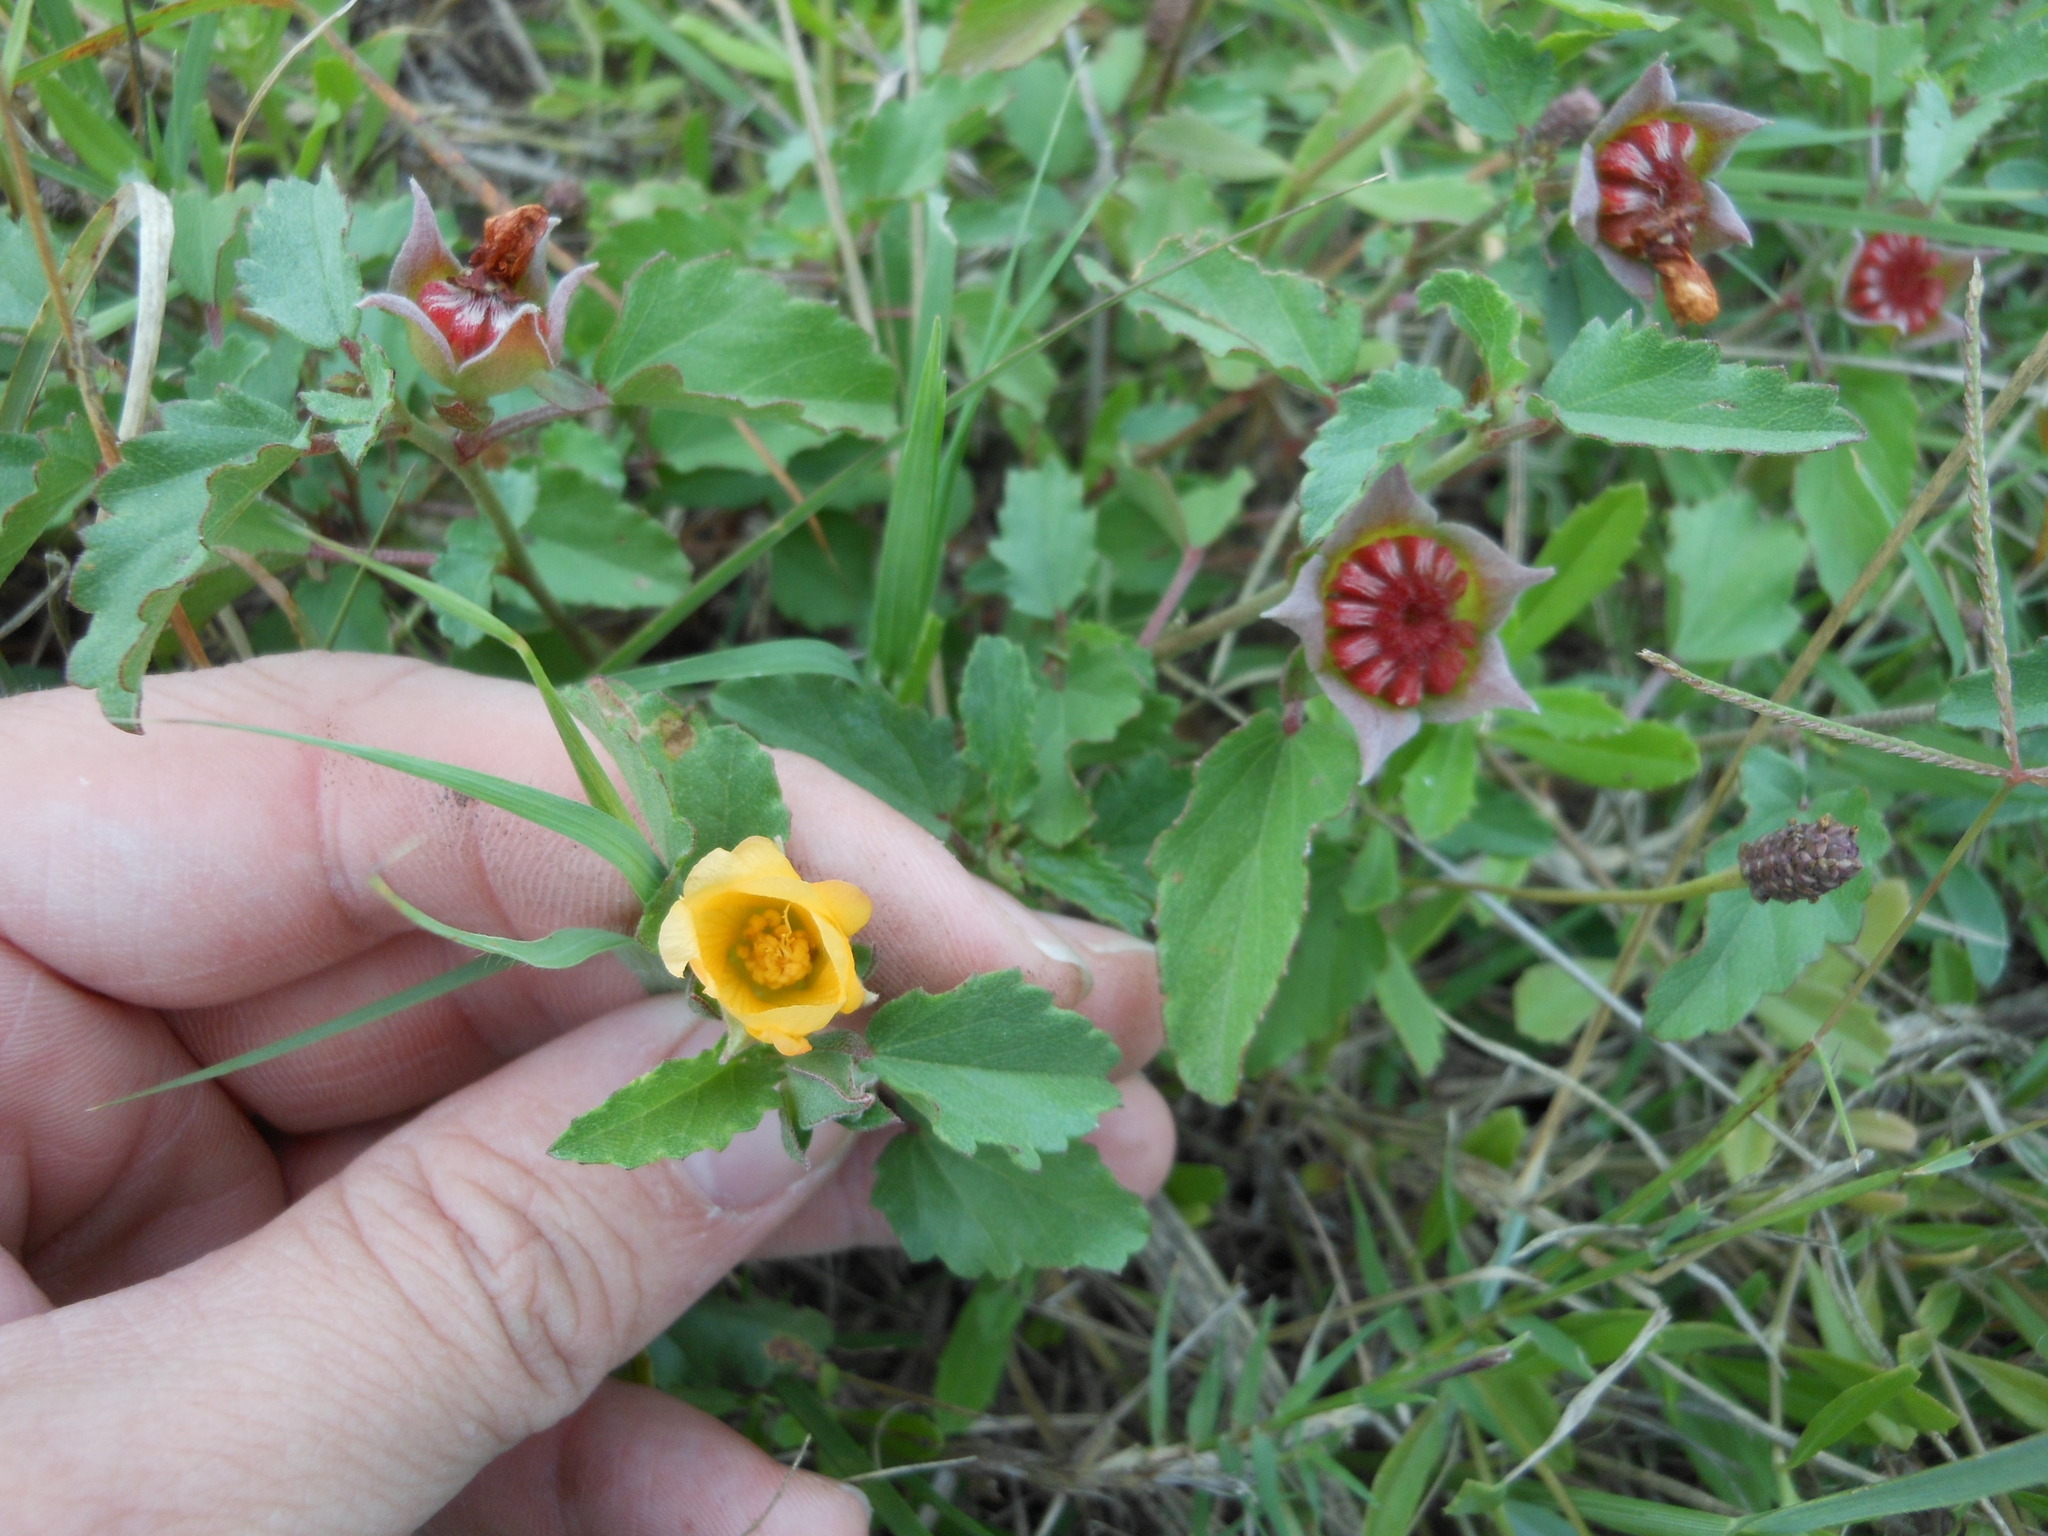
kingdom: Plantae
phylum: Tracheophyta
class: Magnoliopsida
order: Malvales
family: Malvaceae
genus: Malvastrum
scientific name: Malvastrum aurantiacum
